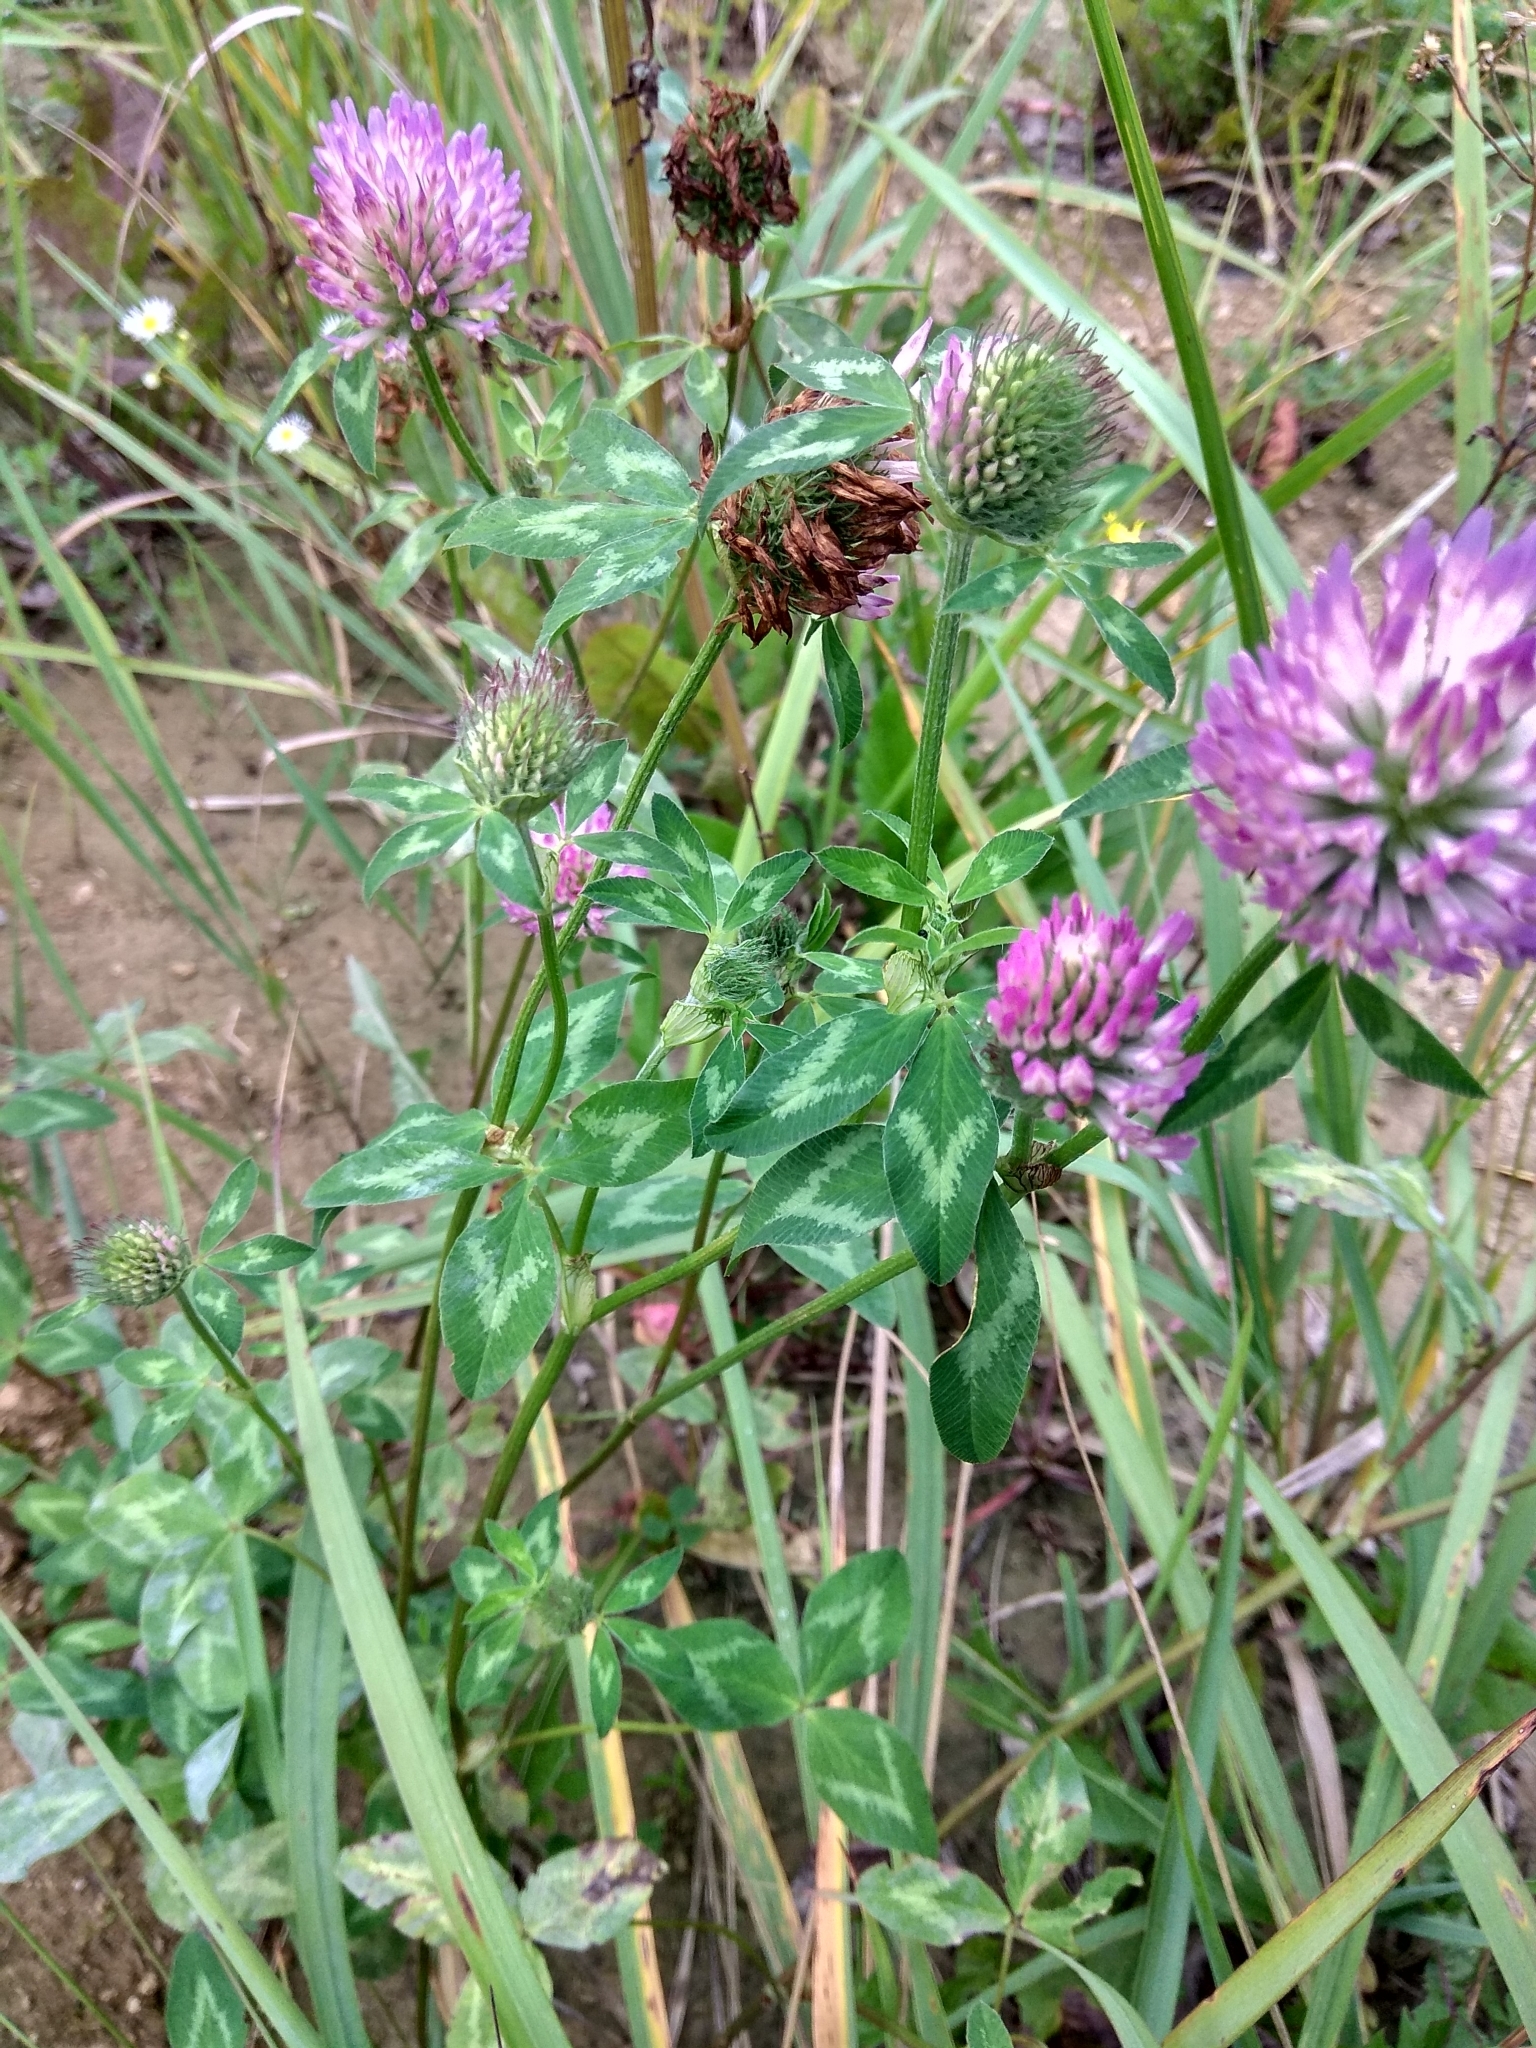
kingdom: Plantae
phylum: Tracheophyta
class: Magnoliopsida
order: Fabales
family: Fabaceae
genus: Trifolium
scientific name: Trifolium pratense
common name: Red clover
